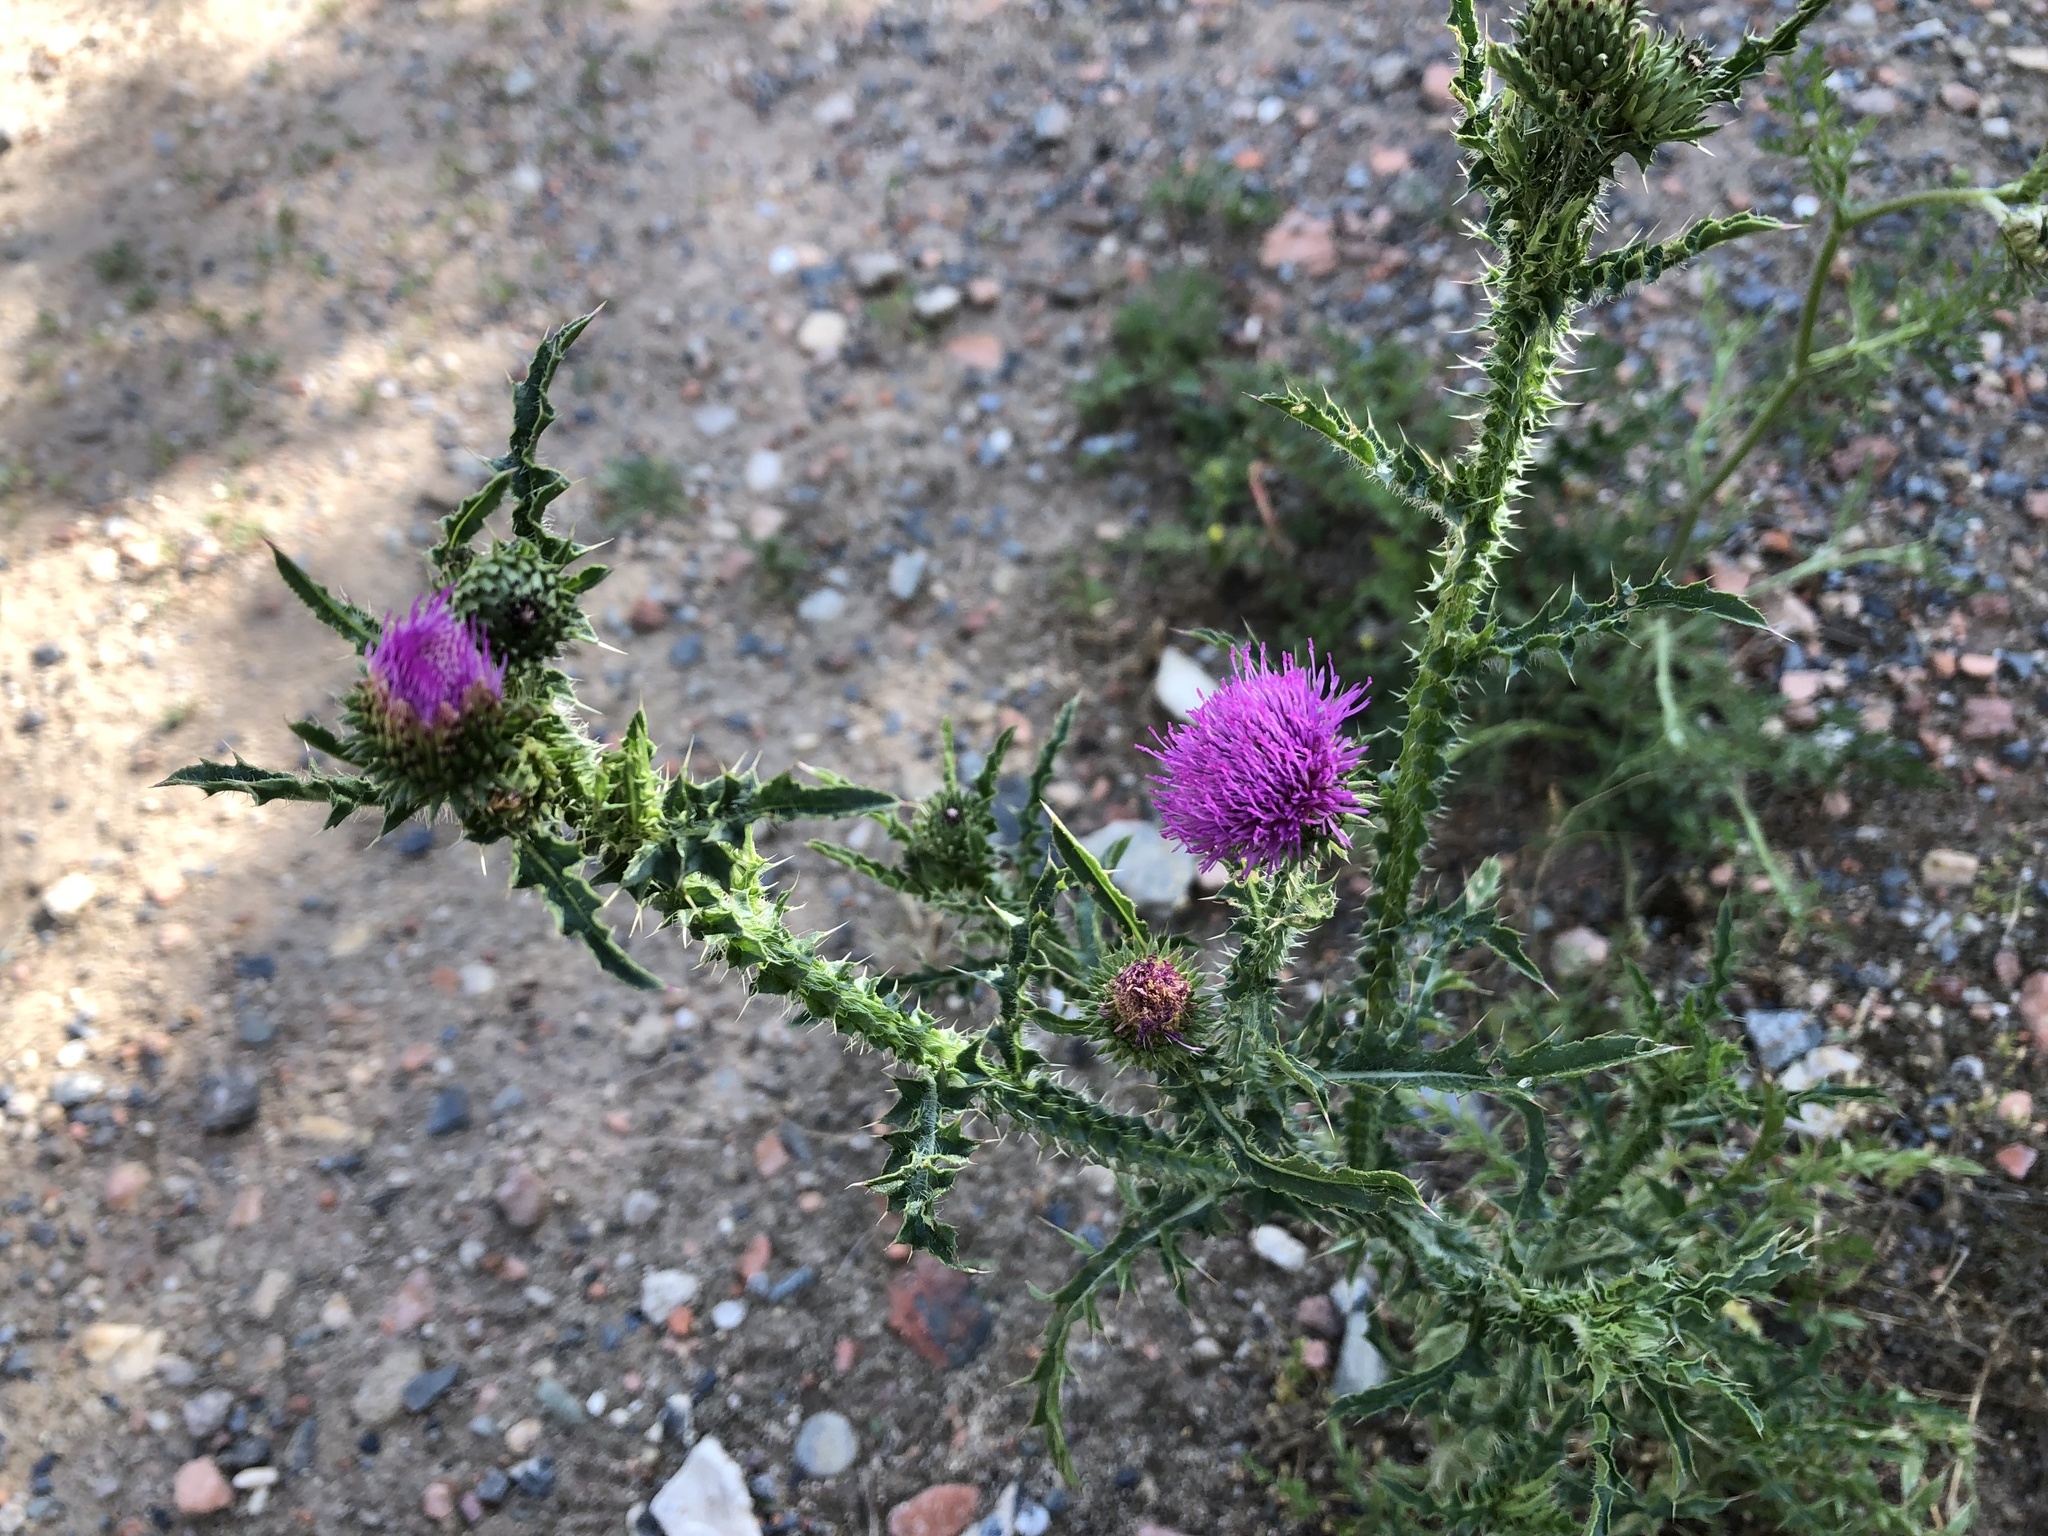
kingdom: Plantae
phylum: Tracheophyta
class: Magnoliopsida
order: Asterales
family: Asteraceae
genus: Carduus
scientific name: Carduus acanthoides
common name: Plumeless thistle
